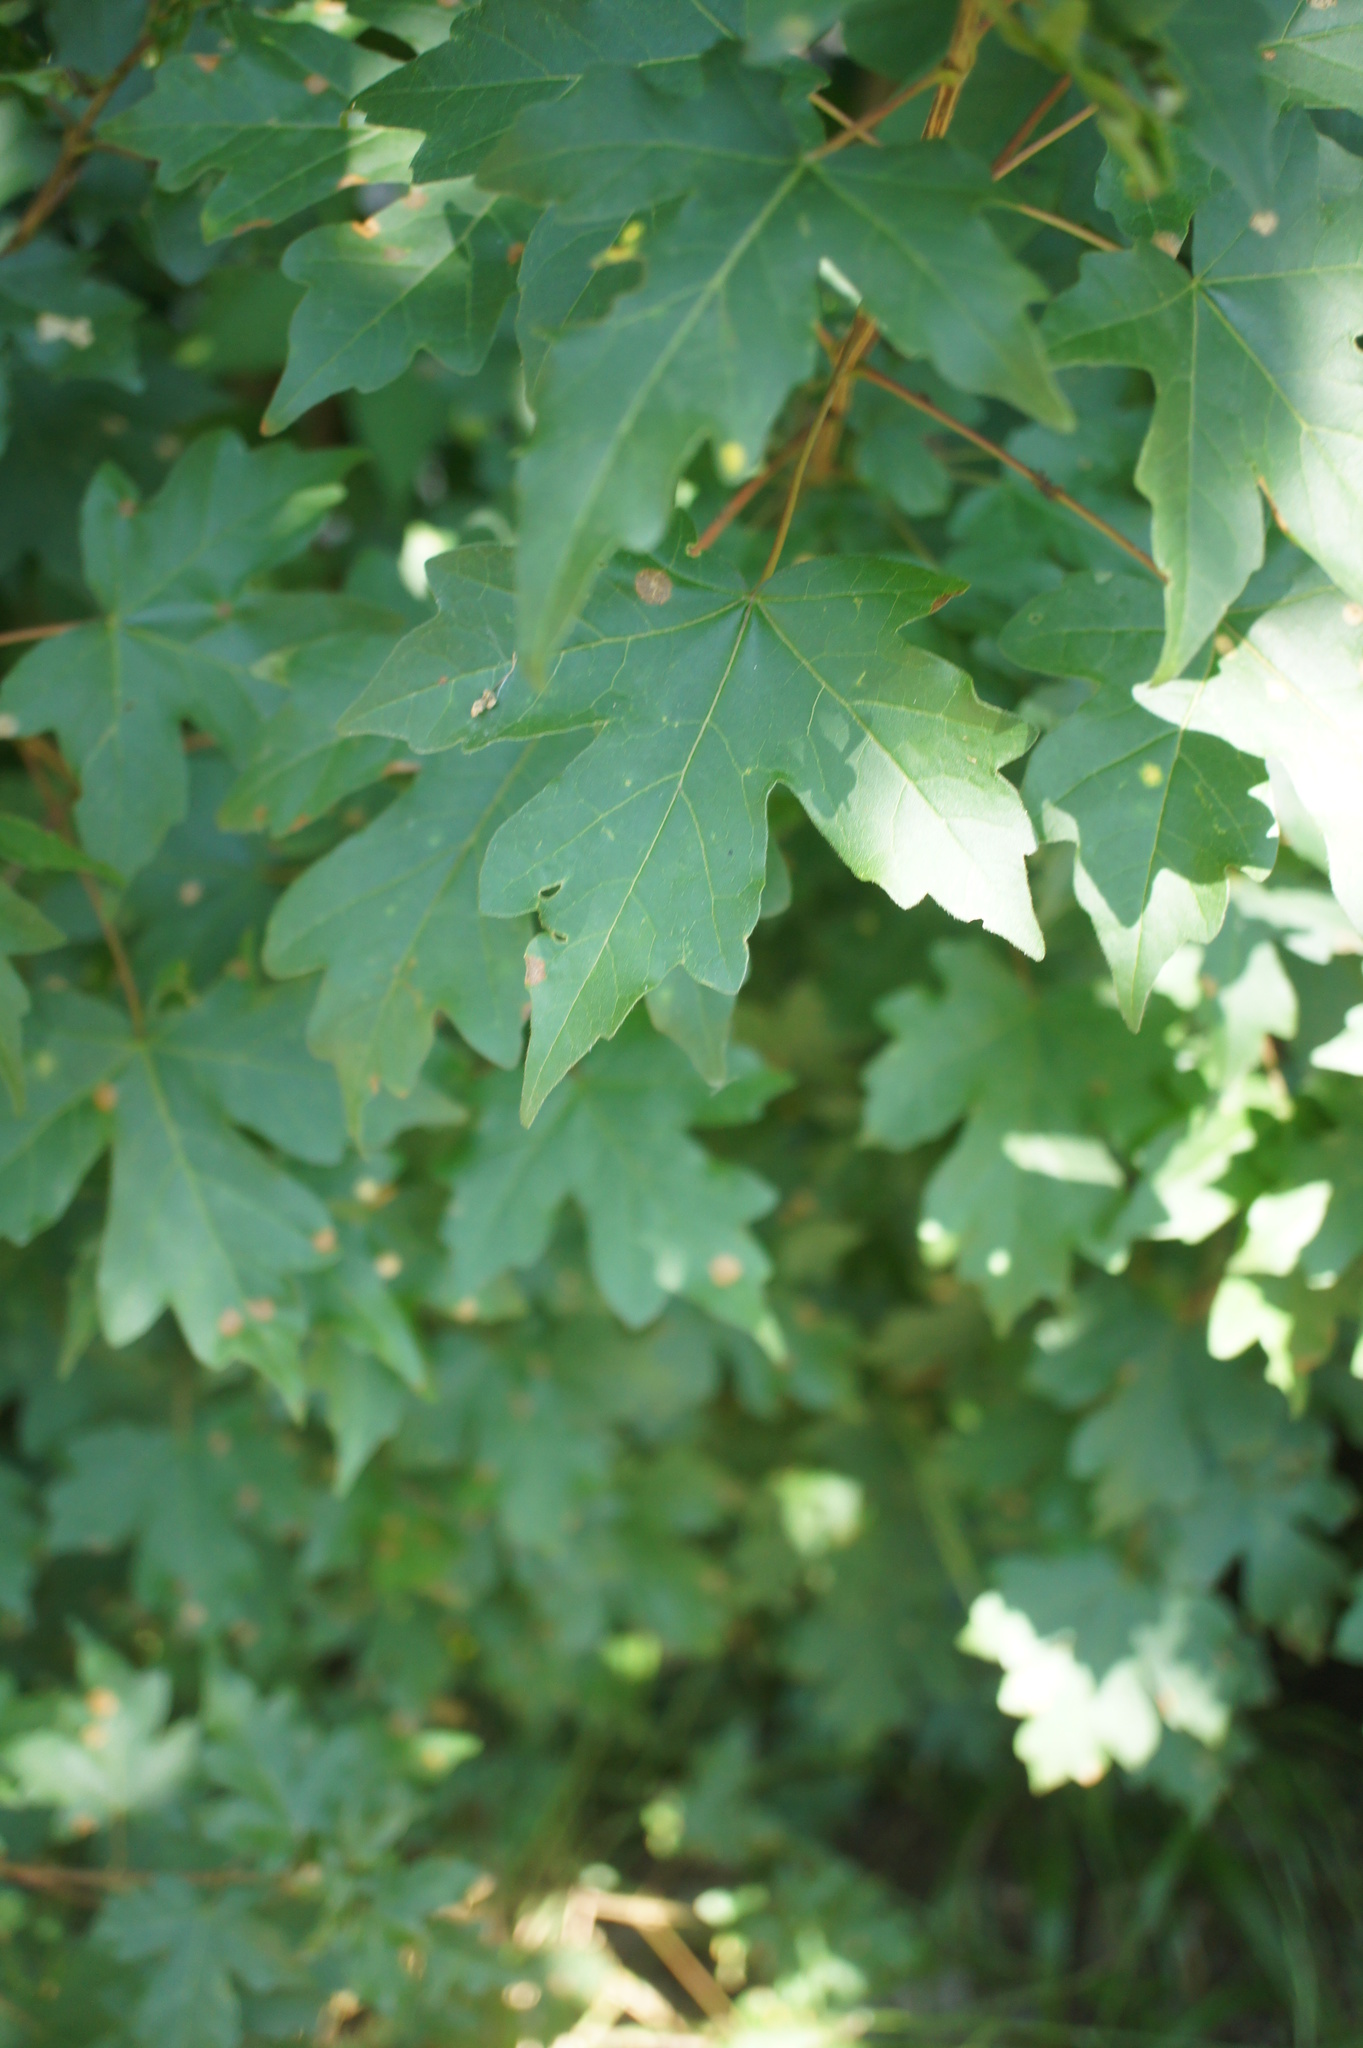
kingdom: Plantae
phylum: Tracheophyta
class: Magnoliopsida
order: Sapindales
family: Sapindaceae
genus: Acer
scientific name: Acer campestre
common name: Field maple
